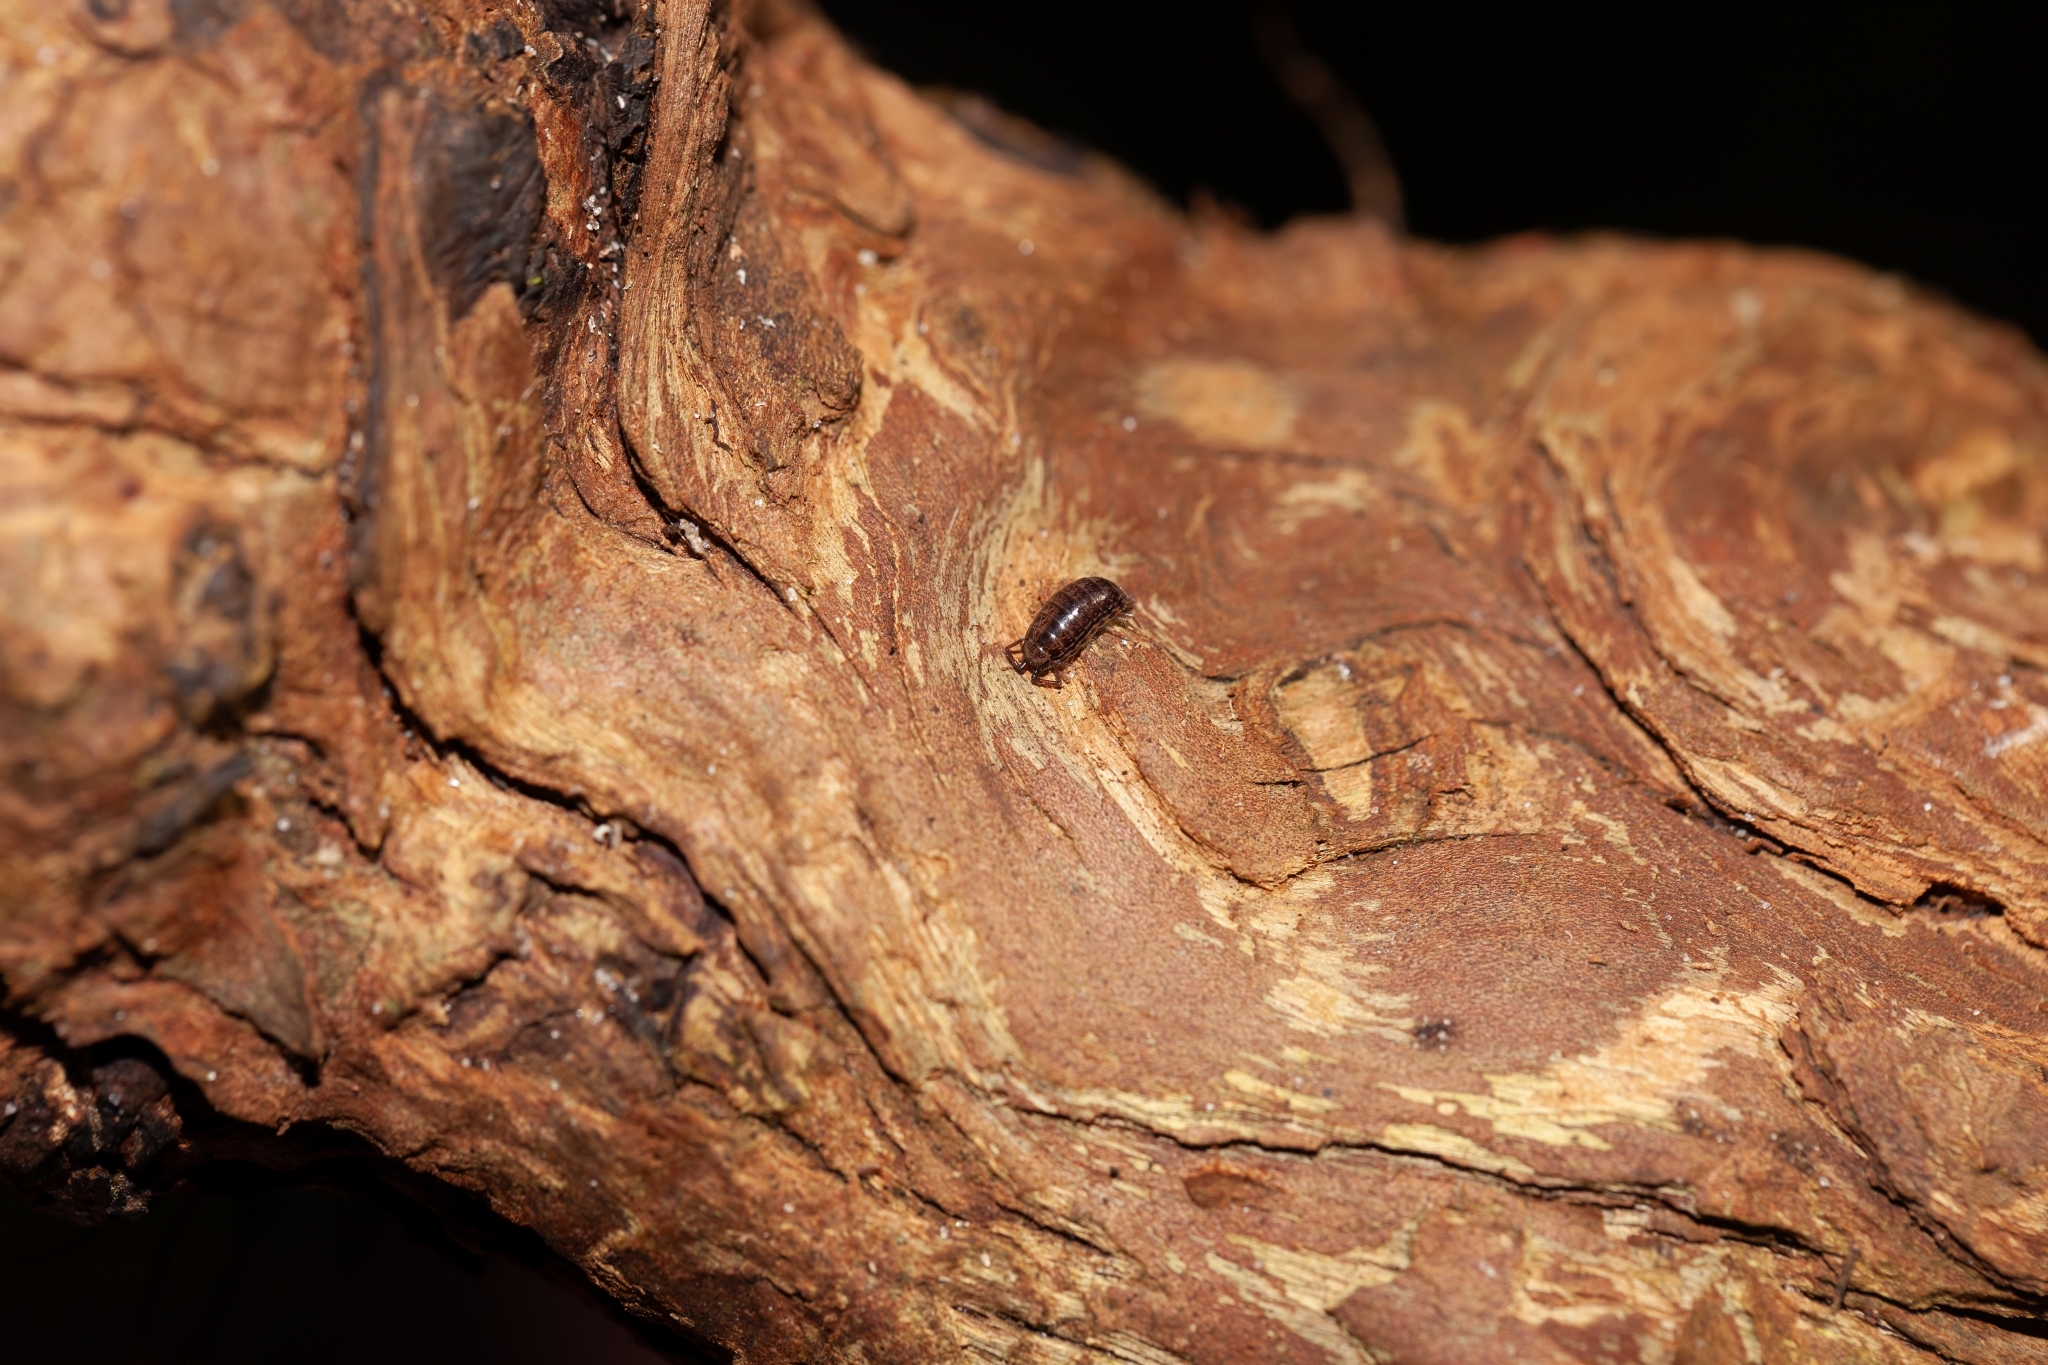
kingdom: Animalia
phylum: Arthropoda
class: Malacostraca
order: Isopoda
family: Philosciidae
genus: Atlantoscia
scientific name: Atlantoscia floridana
